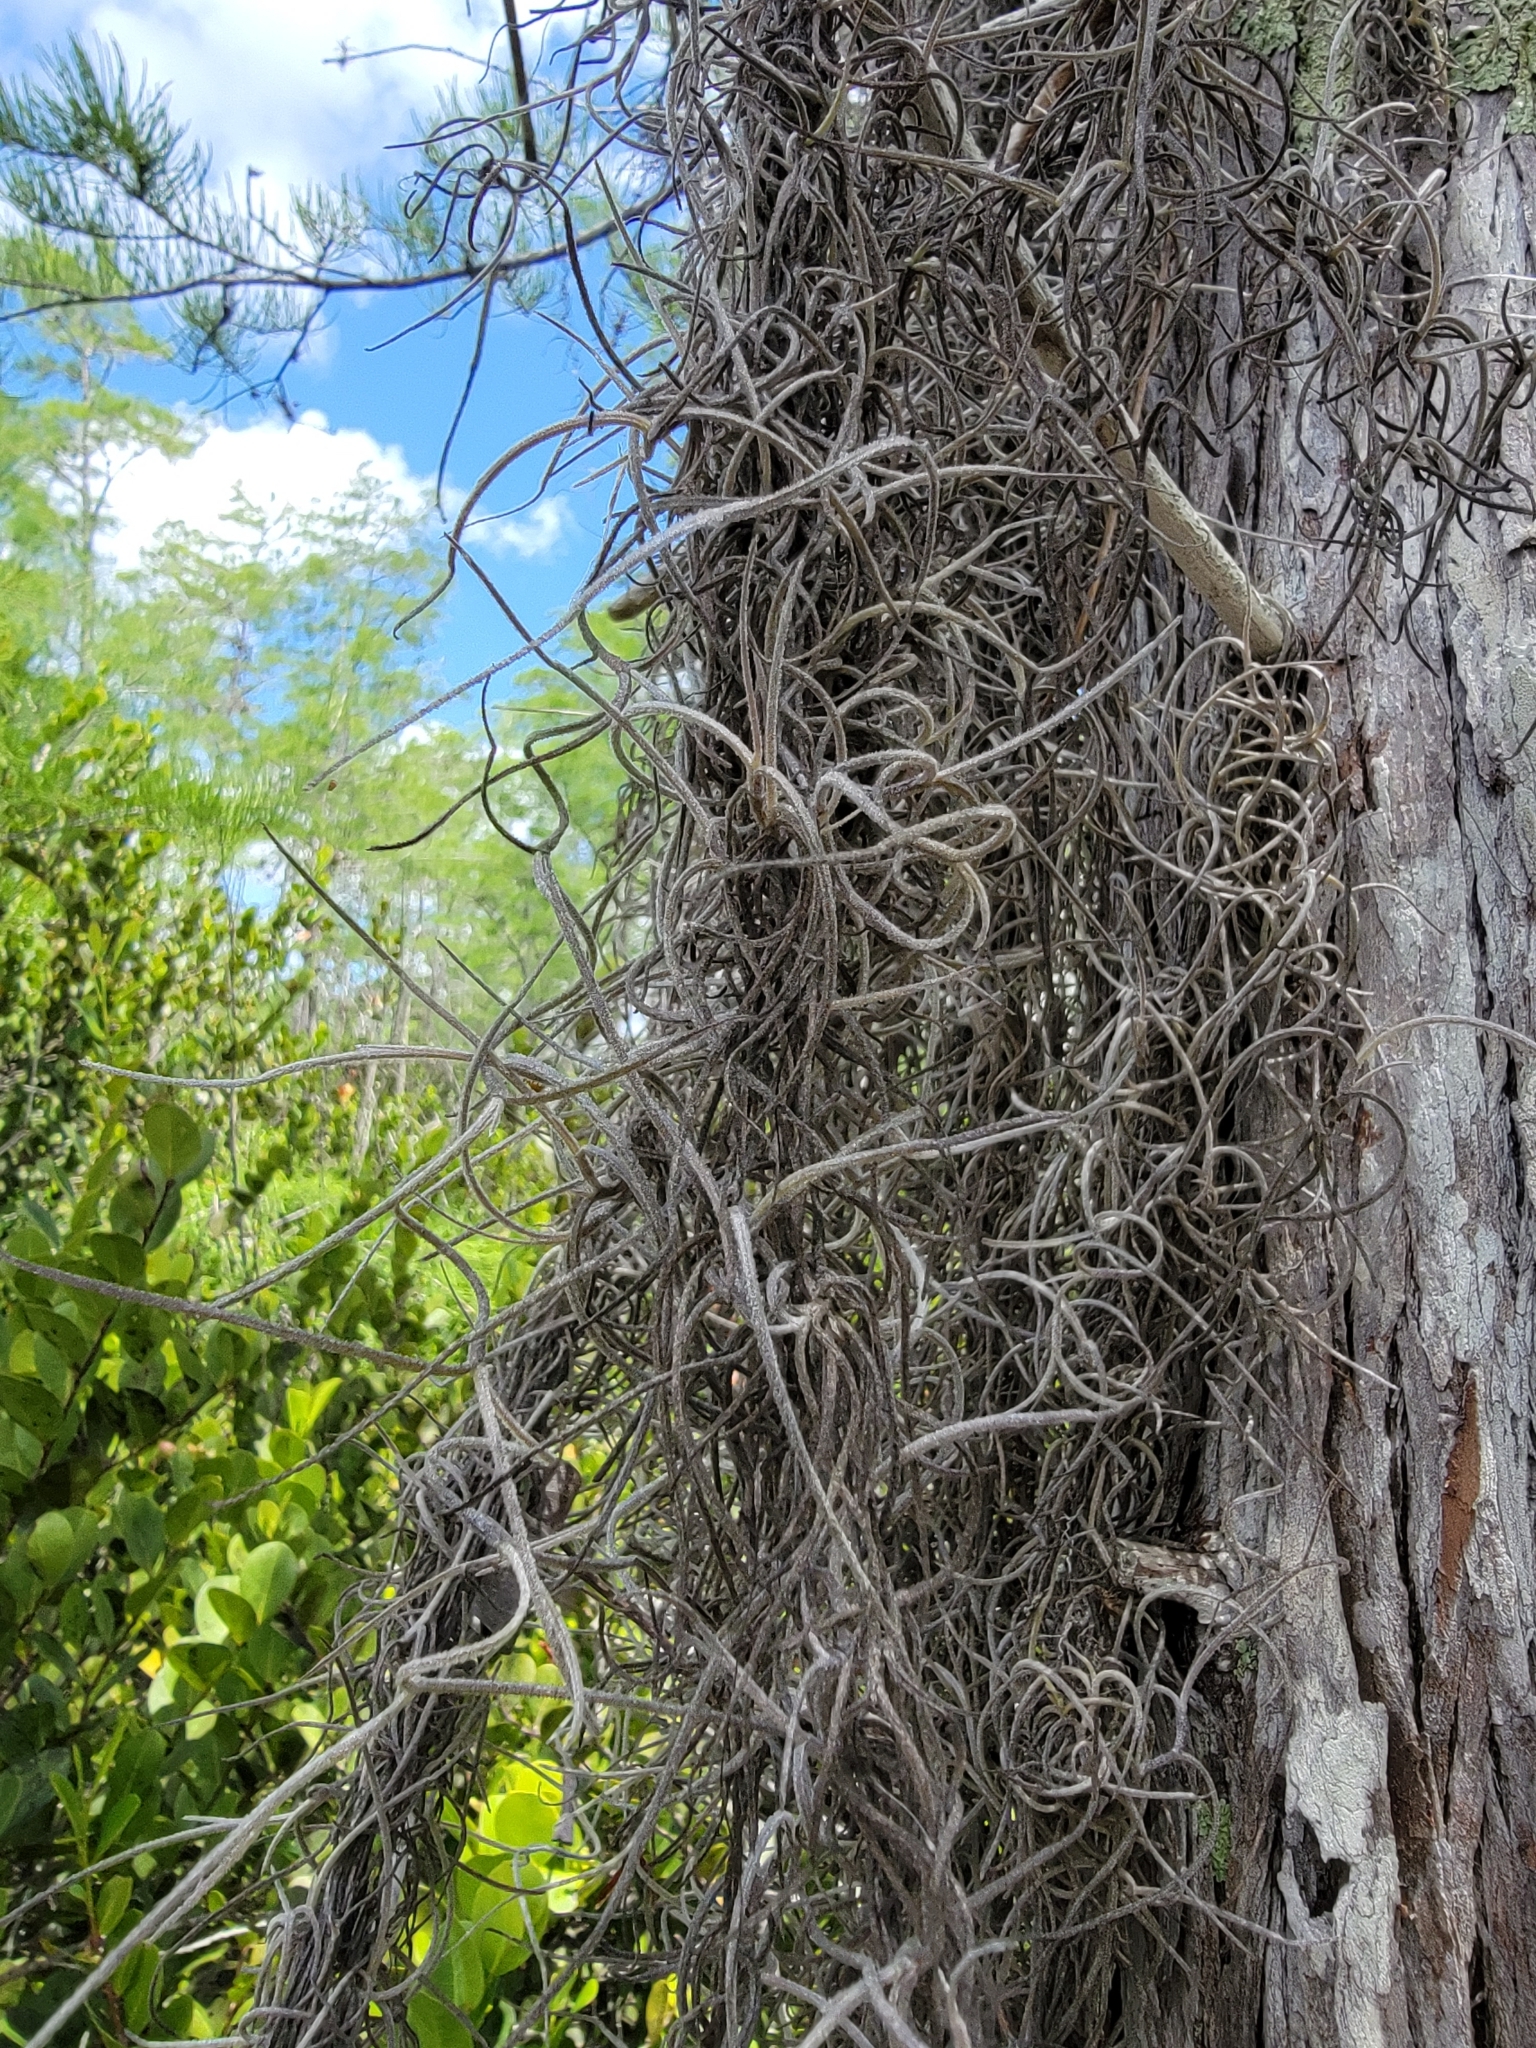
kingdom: Plantae
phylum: Tracheophyta
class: Liliopsida
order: Poales
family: Bromeliaceae
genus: Tillandsia
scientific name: Tillandsia usneoides
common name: Spanish moss
